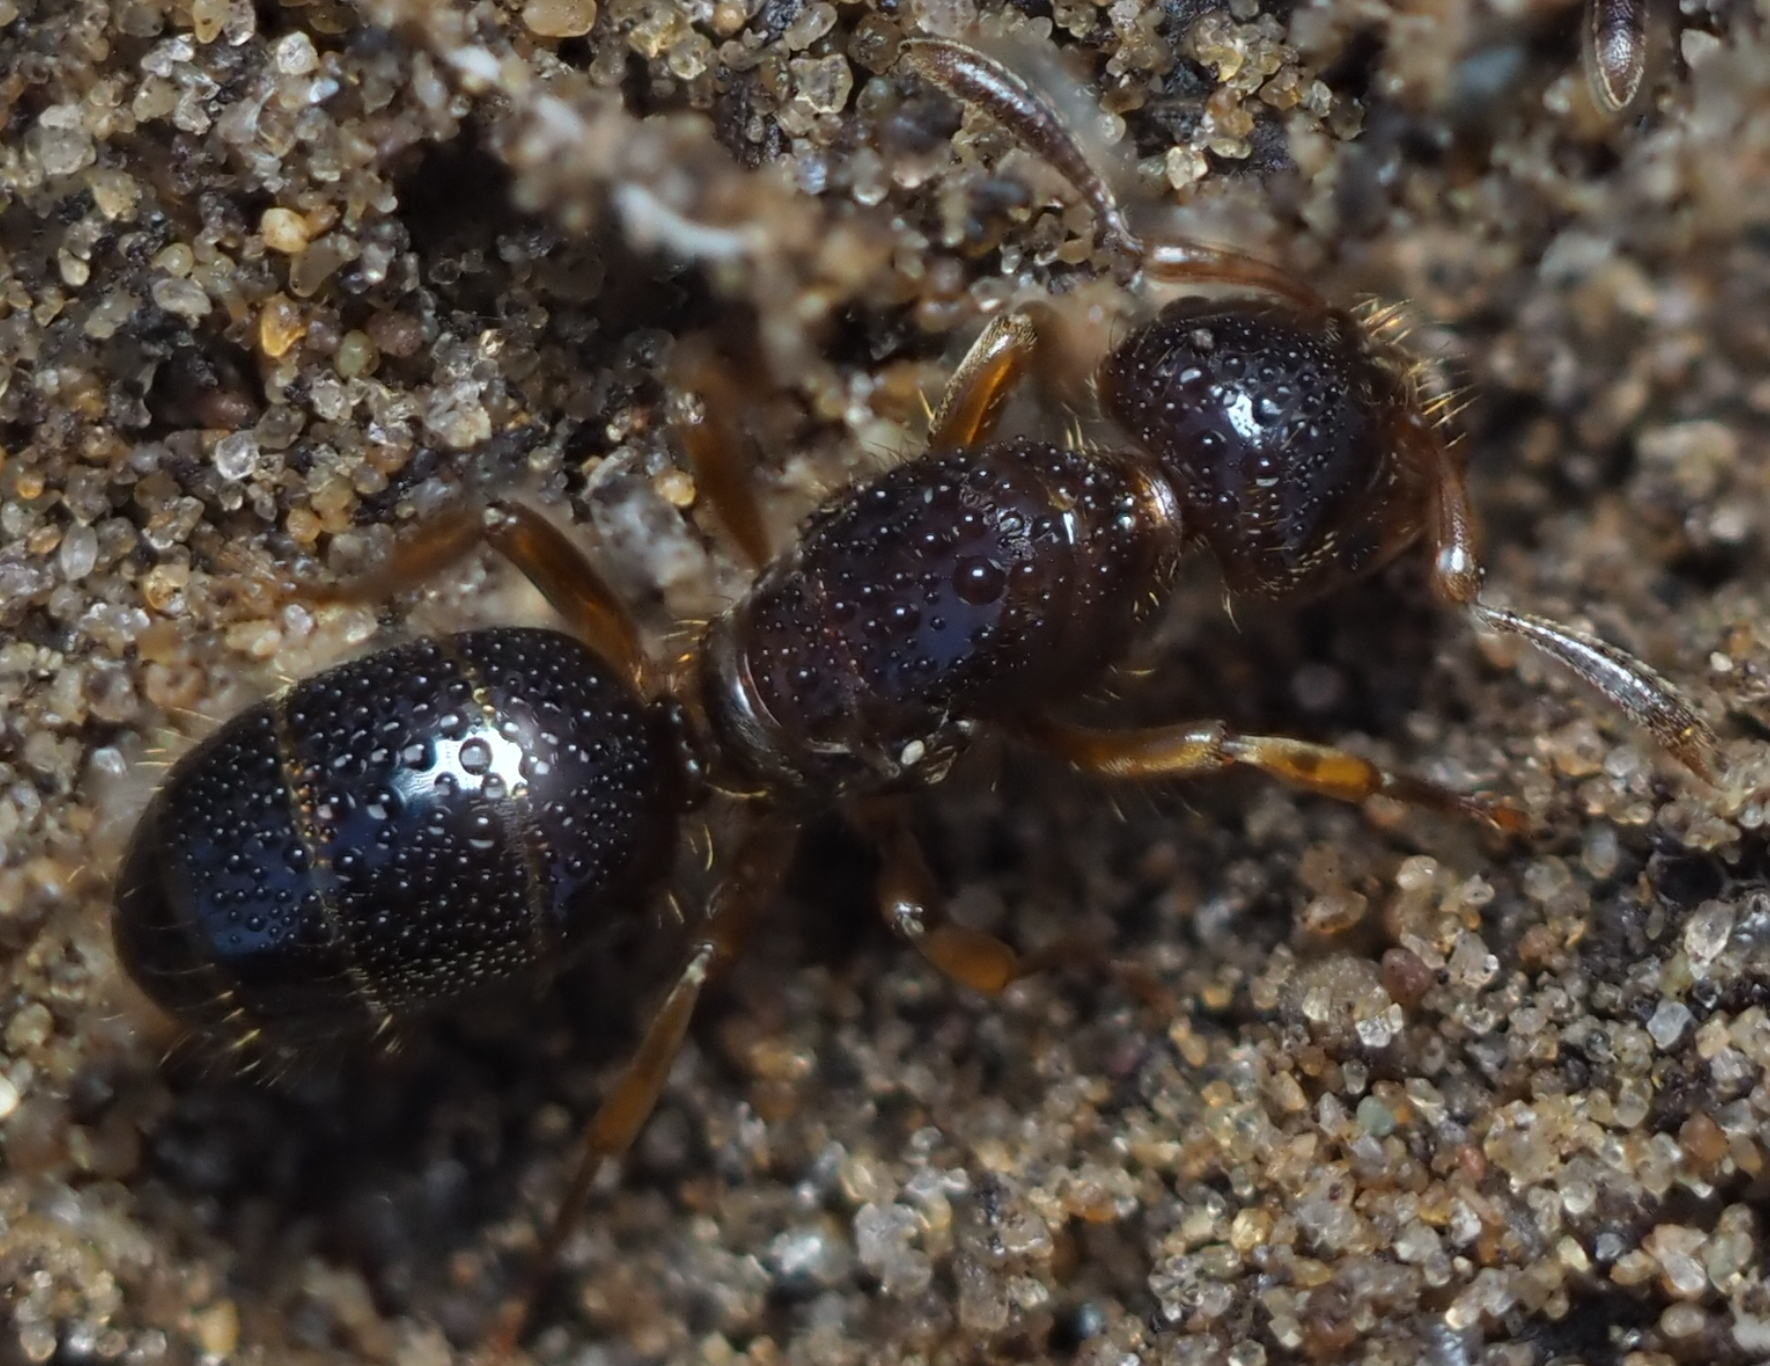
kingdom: Animalia
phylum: Arthropoda
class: Insecta
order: Hymenoptera
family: Formicidae
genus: Lasius
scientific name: Lasius claviger
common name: Common citronella ant
